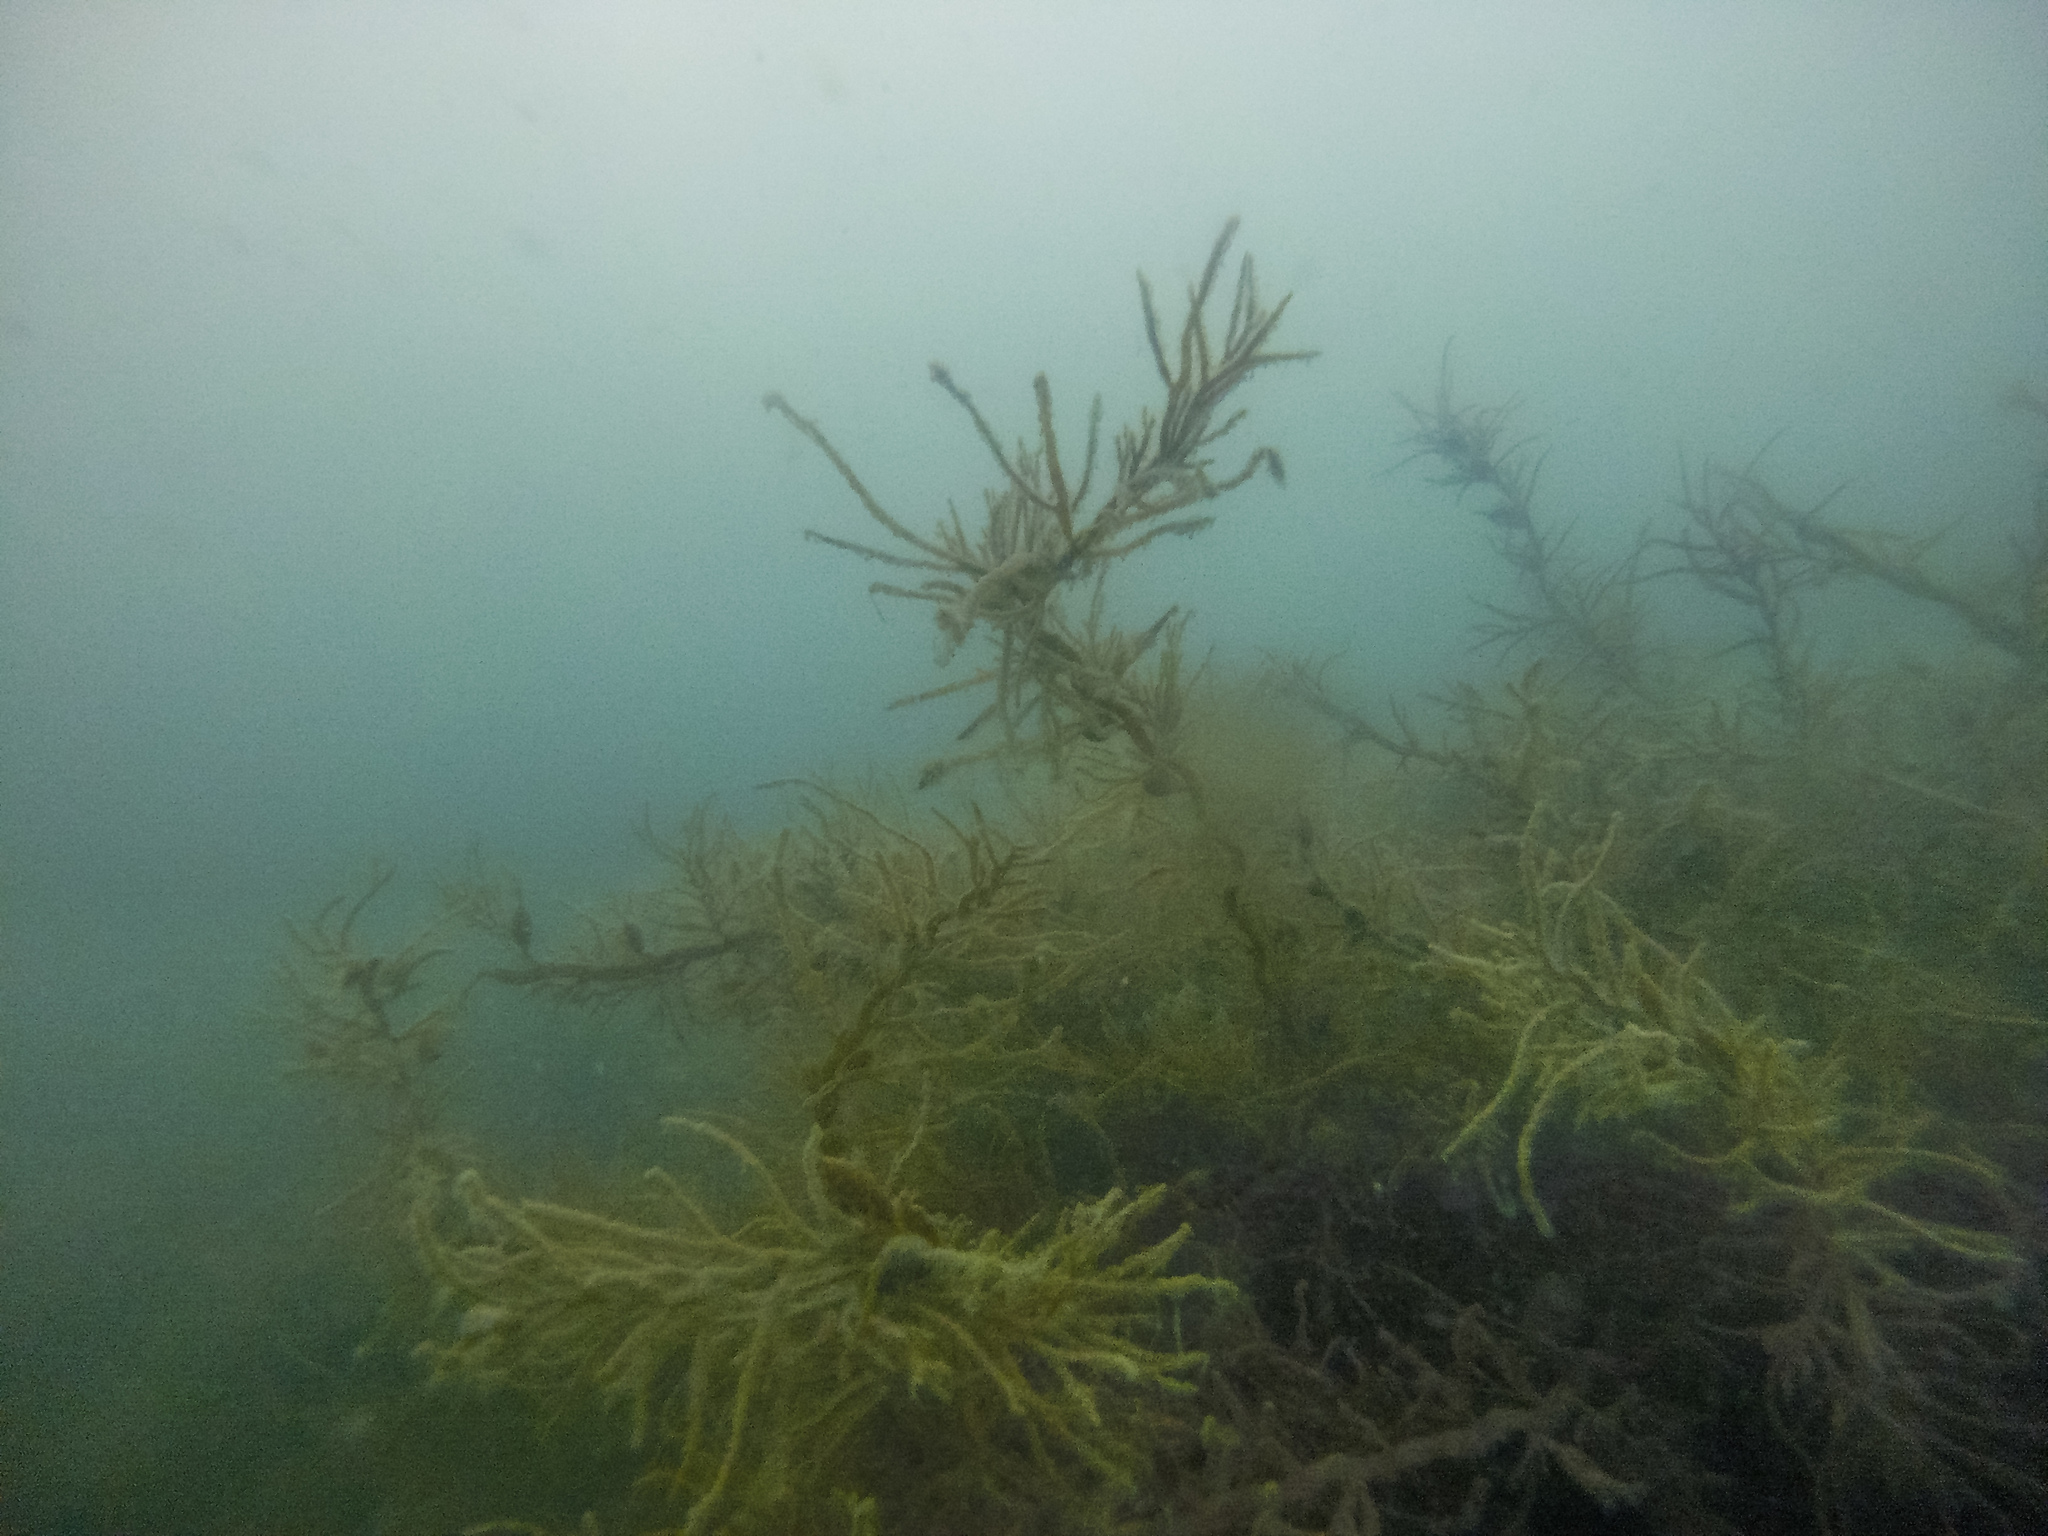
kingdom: Chromista
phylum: Ochrophyta
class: Phaeophyceae
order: Fucales
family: Sargassaceae
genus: Cystophora
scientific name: Cystophora retroflexa
